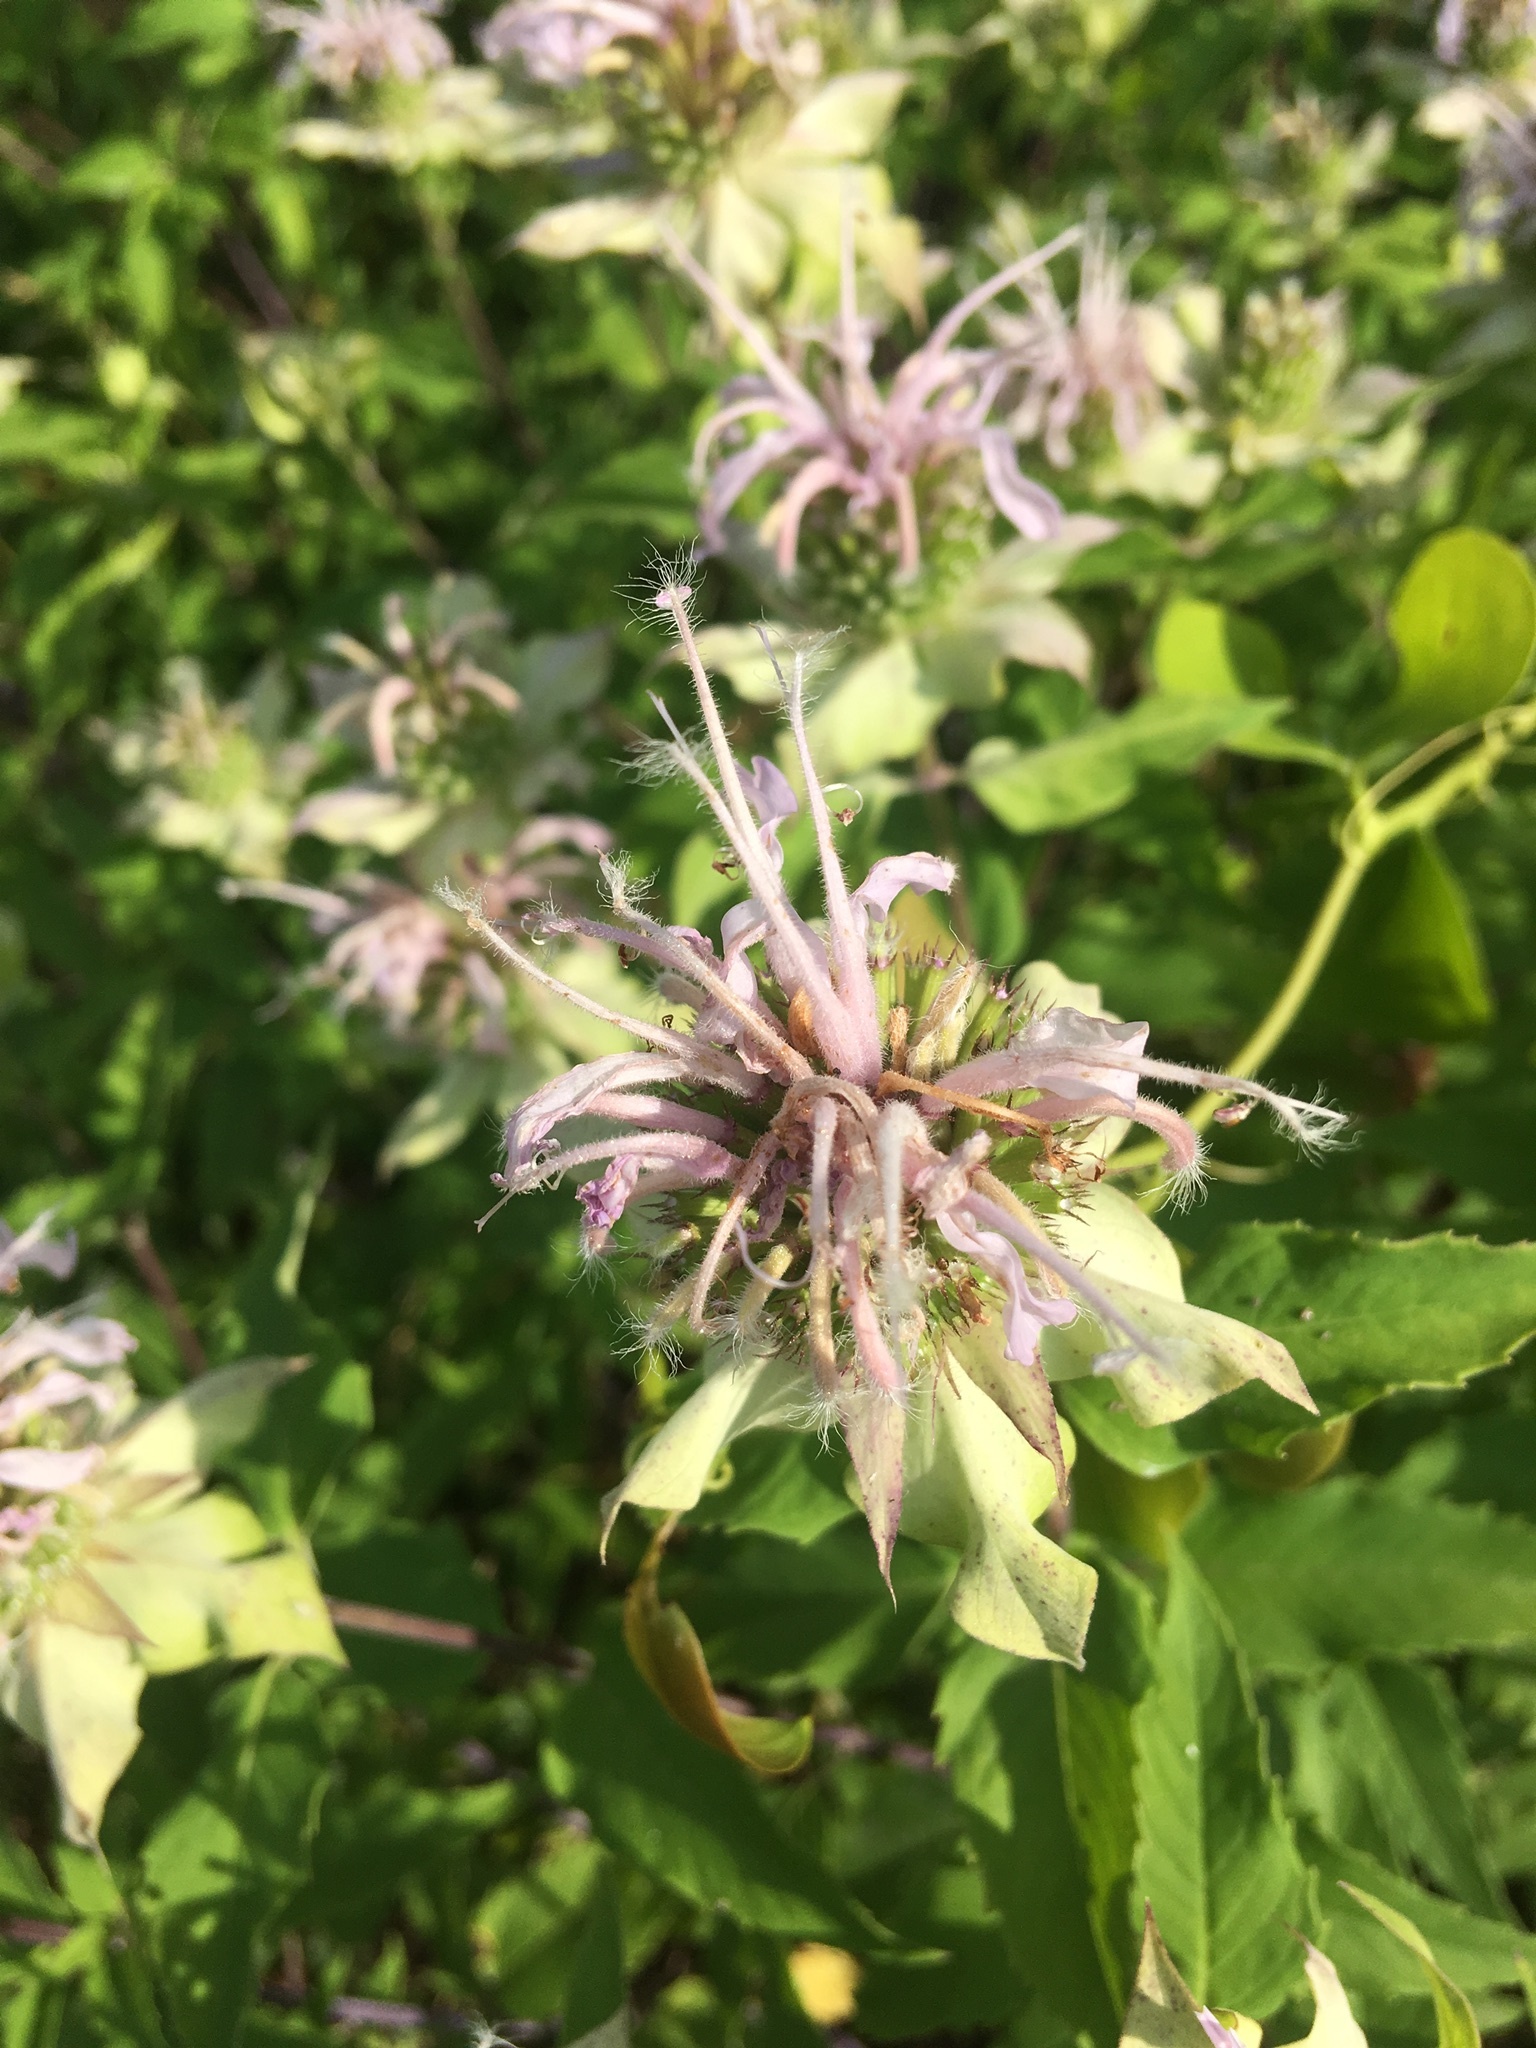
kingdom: Plantae
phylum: Tracheophyta
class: Magnoliopsida
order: Lamiales
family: Lamiaceae
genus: Monarda
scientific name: Monarda fistulosa
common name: Purple beebalm
